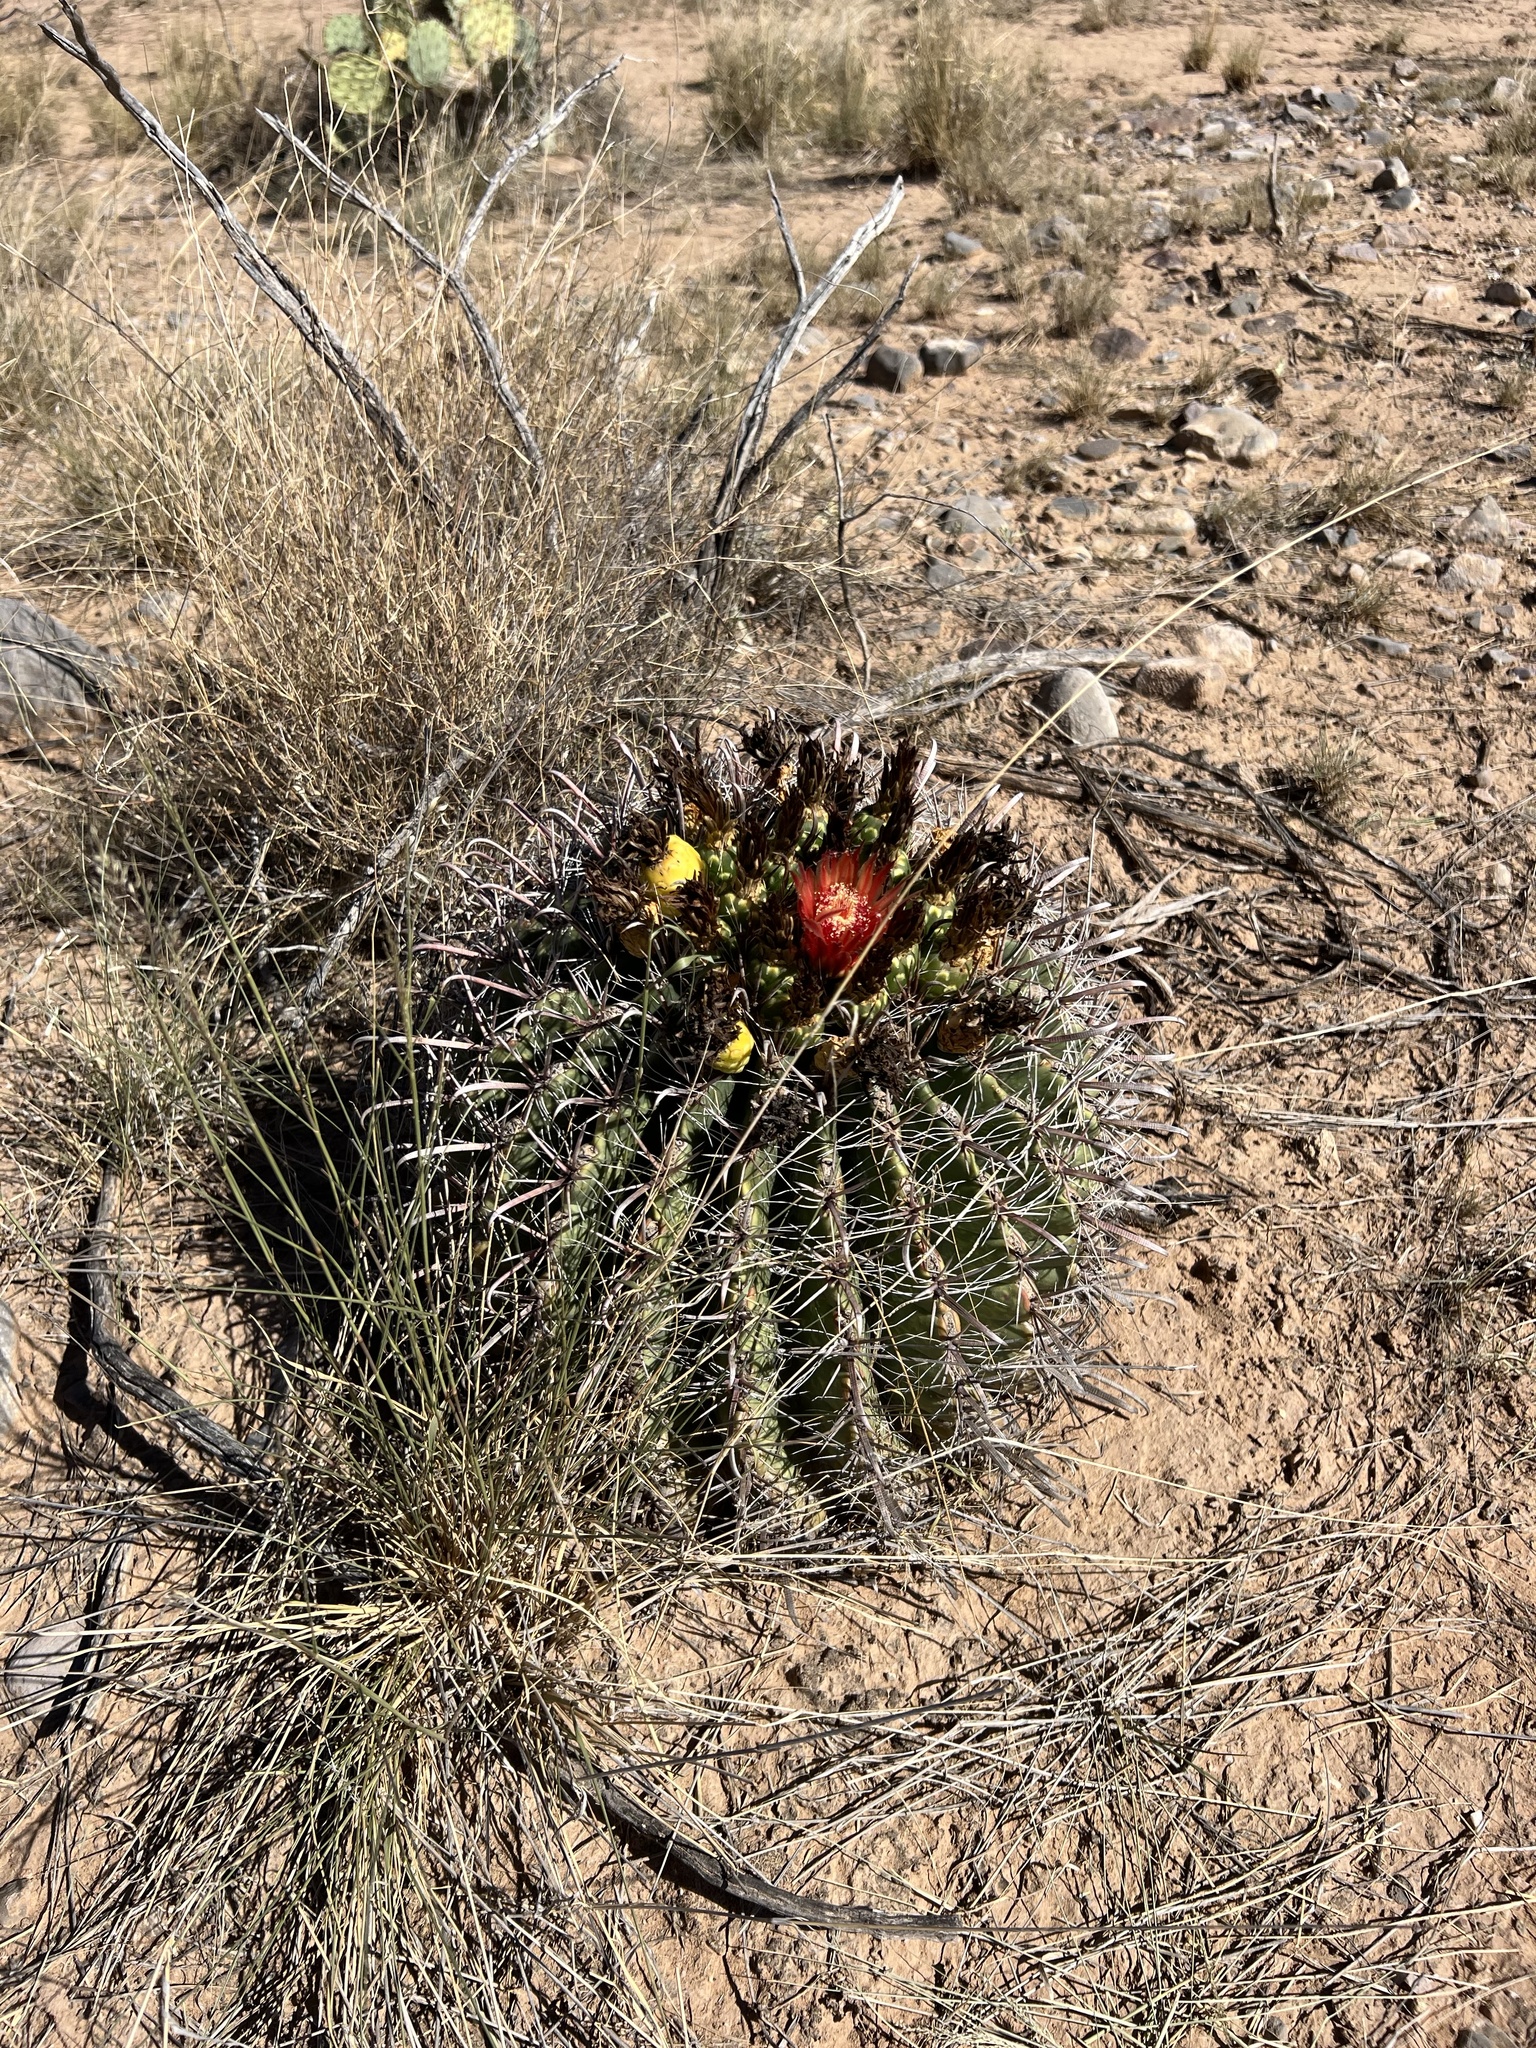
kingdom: Plantae
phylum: Tracheophyta
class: Magnoliopsida
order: Caryophyllales
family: Cactaceae
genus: Ferocactus
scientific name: Ferocactus wislizeni
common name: Candy barrel cactus
